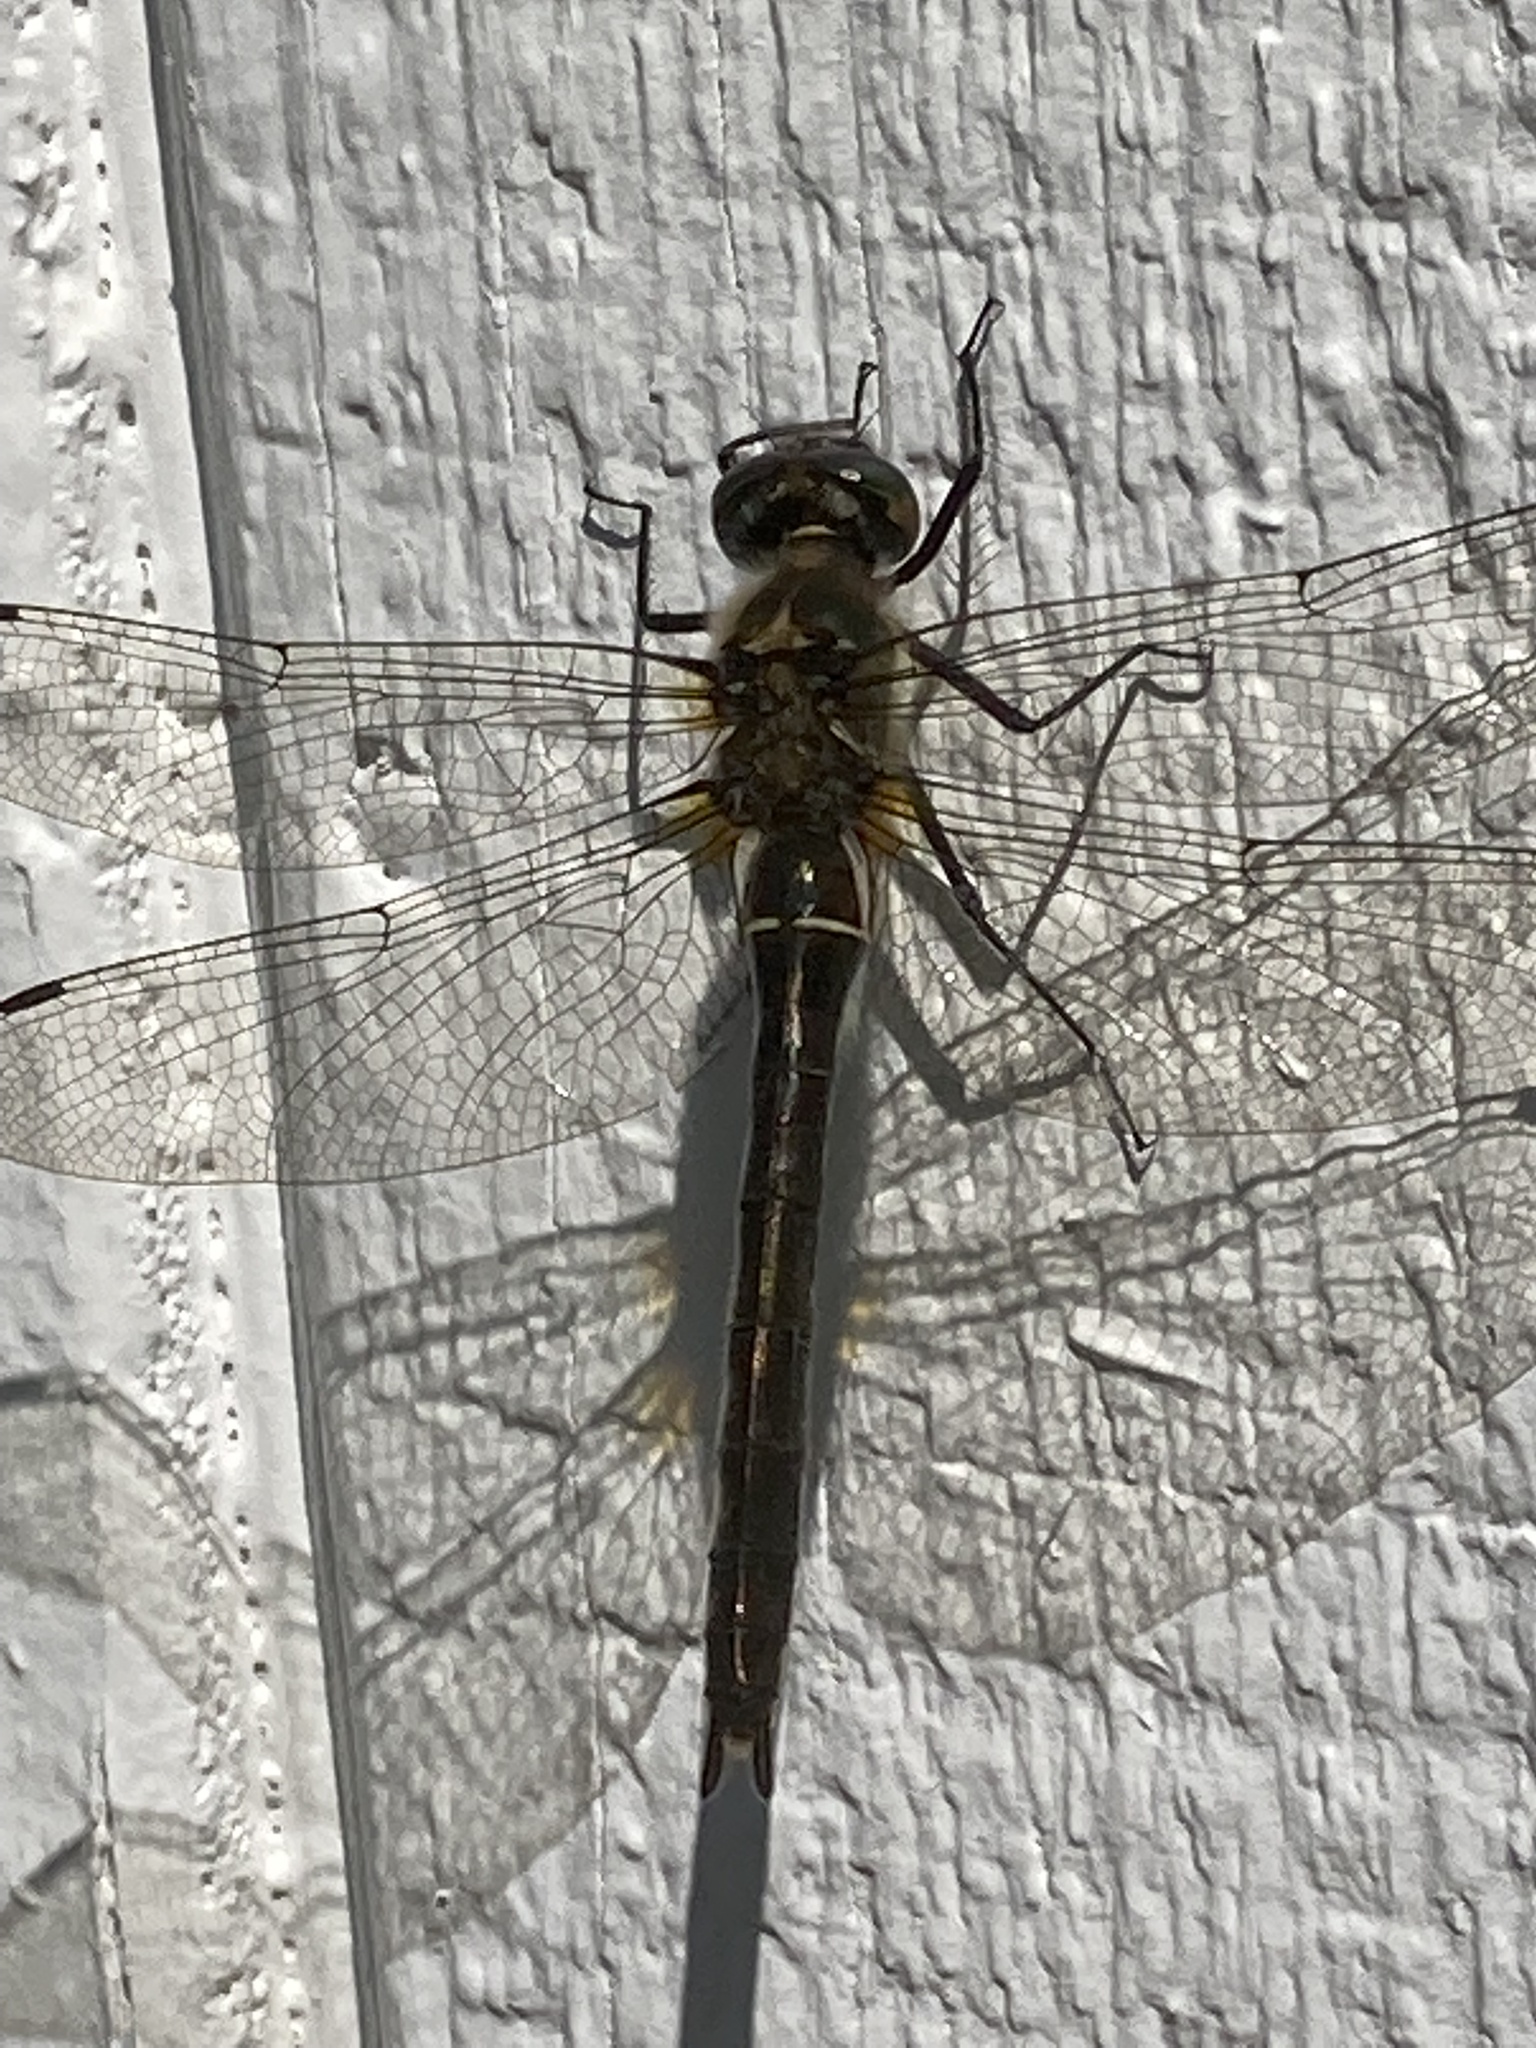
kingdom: Animalia
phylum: Arthropoda
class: Insecta
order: Odonata
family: Corduliidae
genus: Cordulia
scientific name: Cordulia shurtleffii
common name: American emerald
